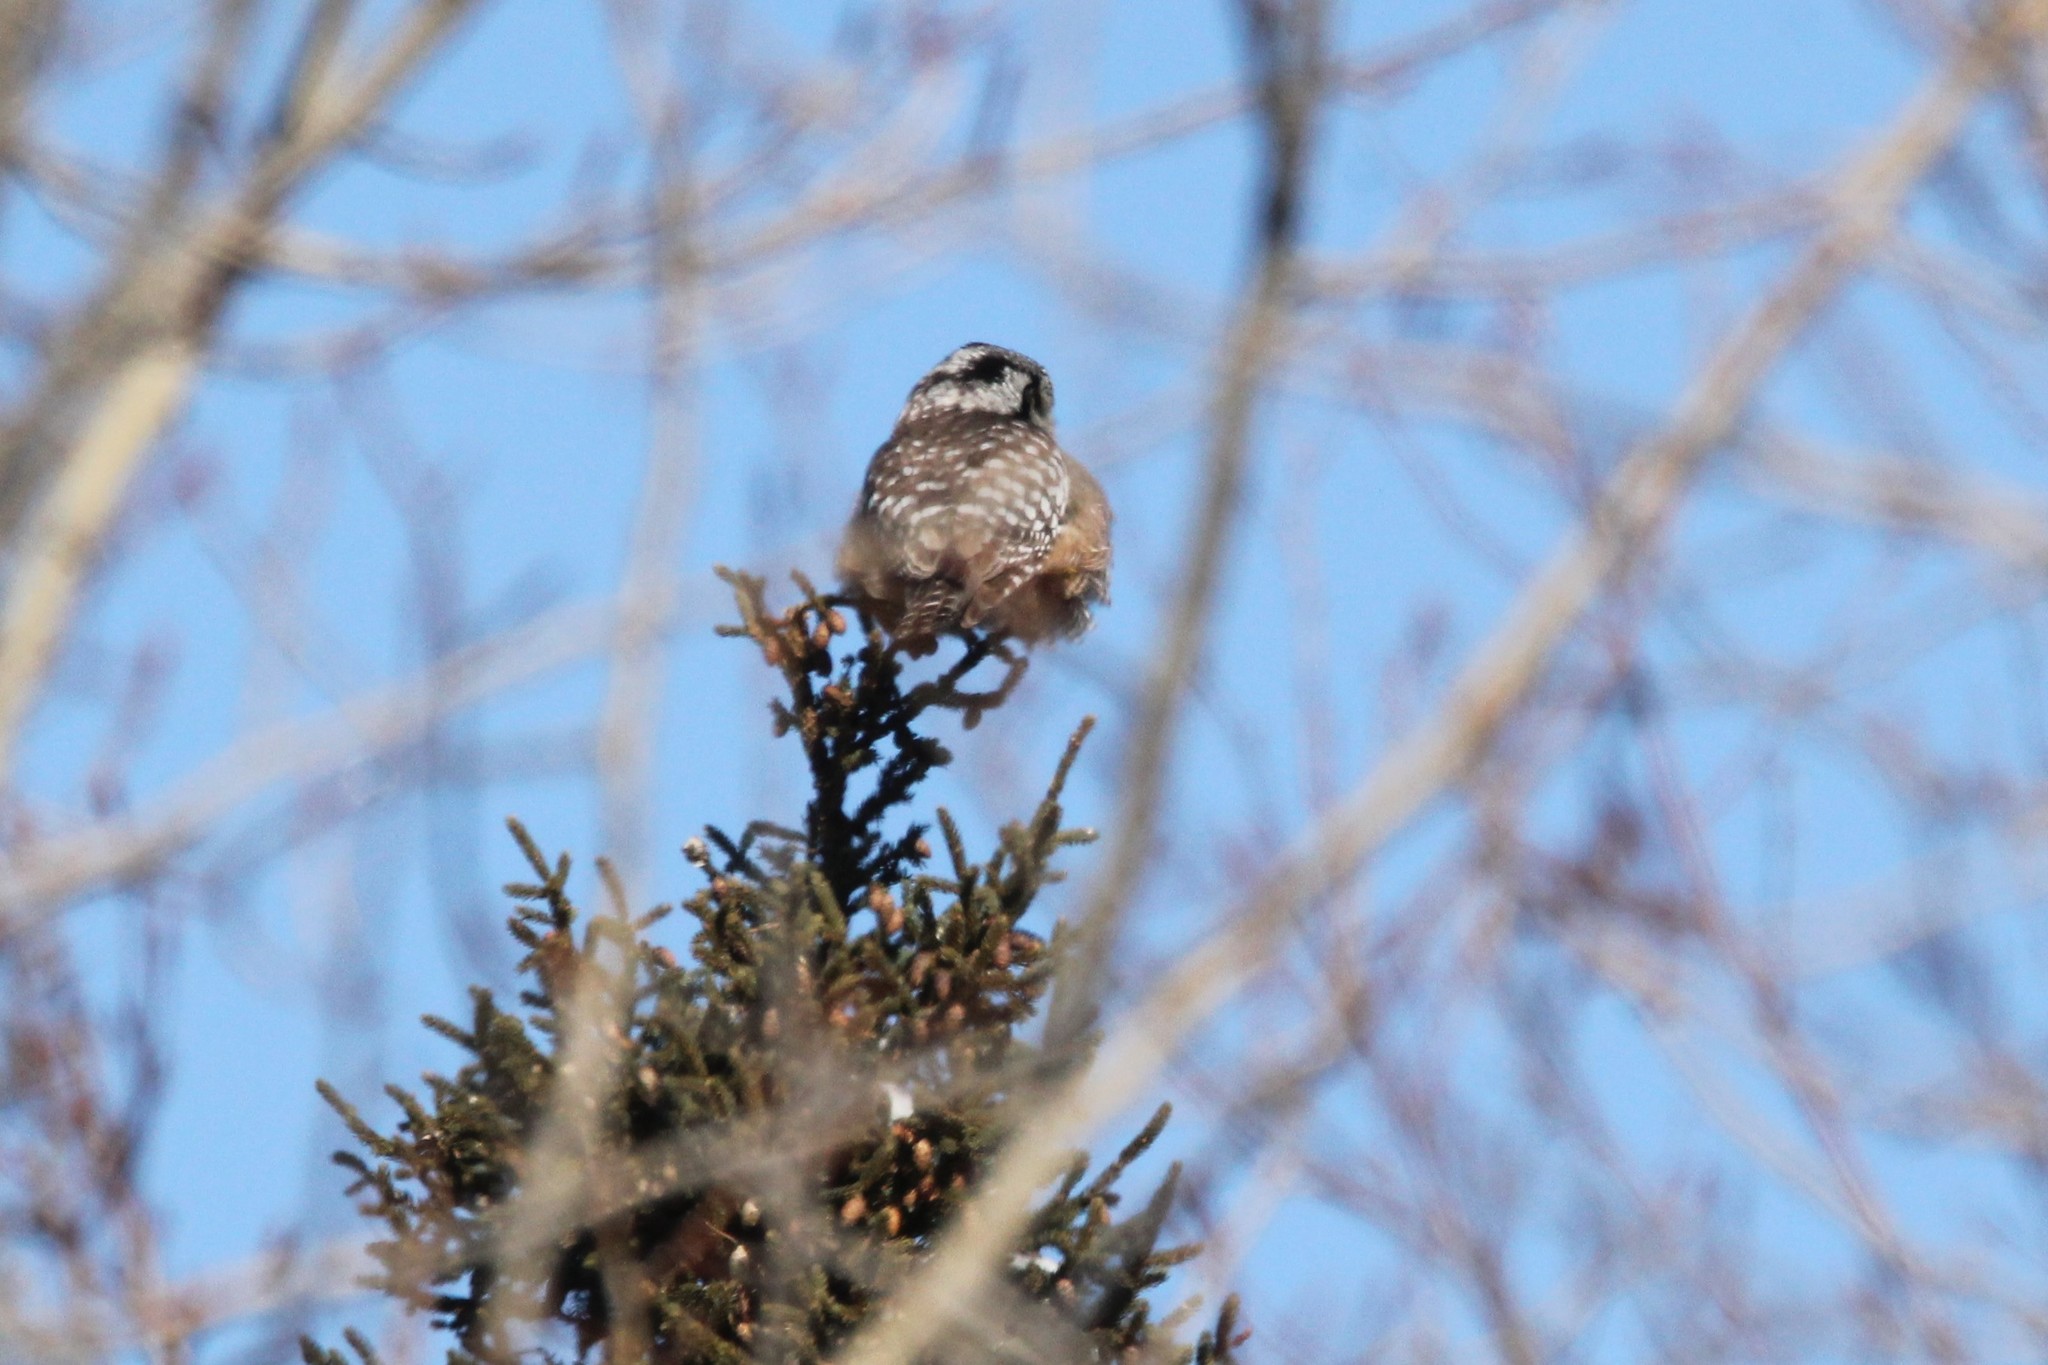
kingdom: Animalia
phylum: Chordata
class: Aves
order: Strigiformes
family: Strigidae
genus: Surnia
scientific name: Surnia ulula
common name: Northern hawk-owl
